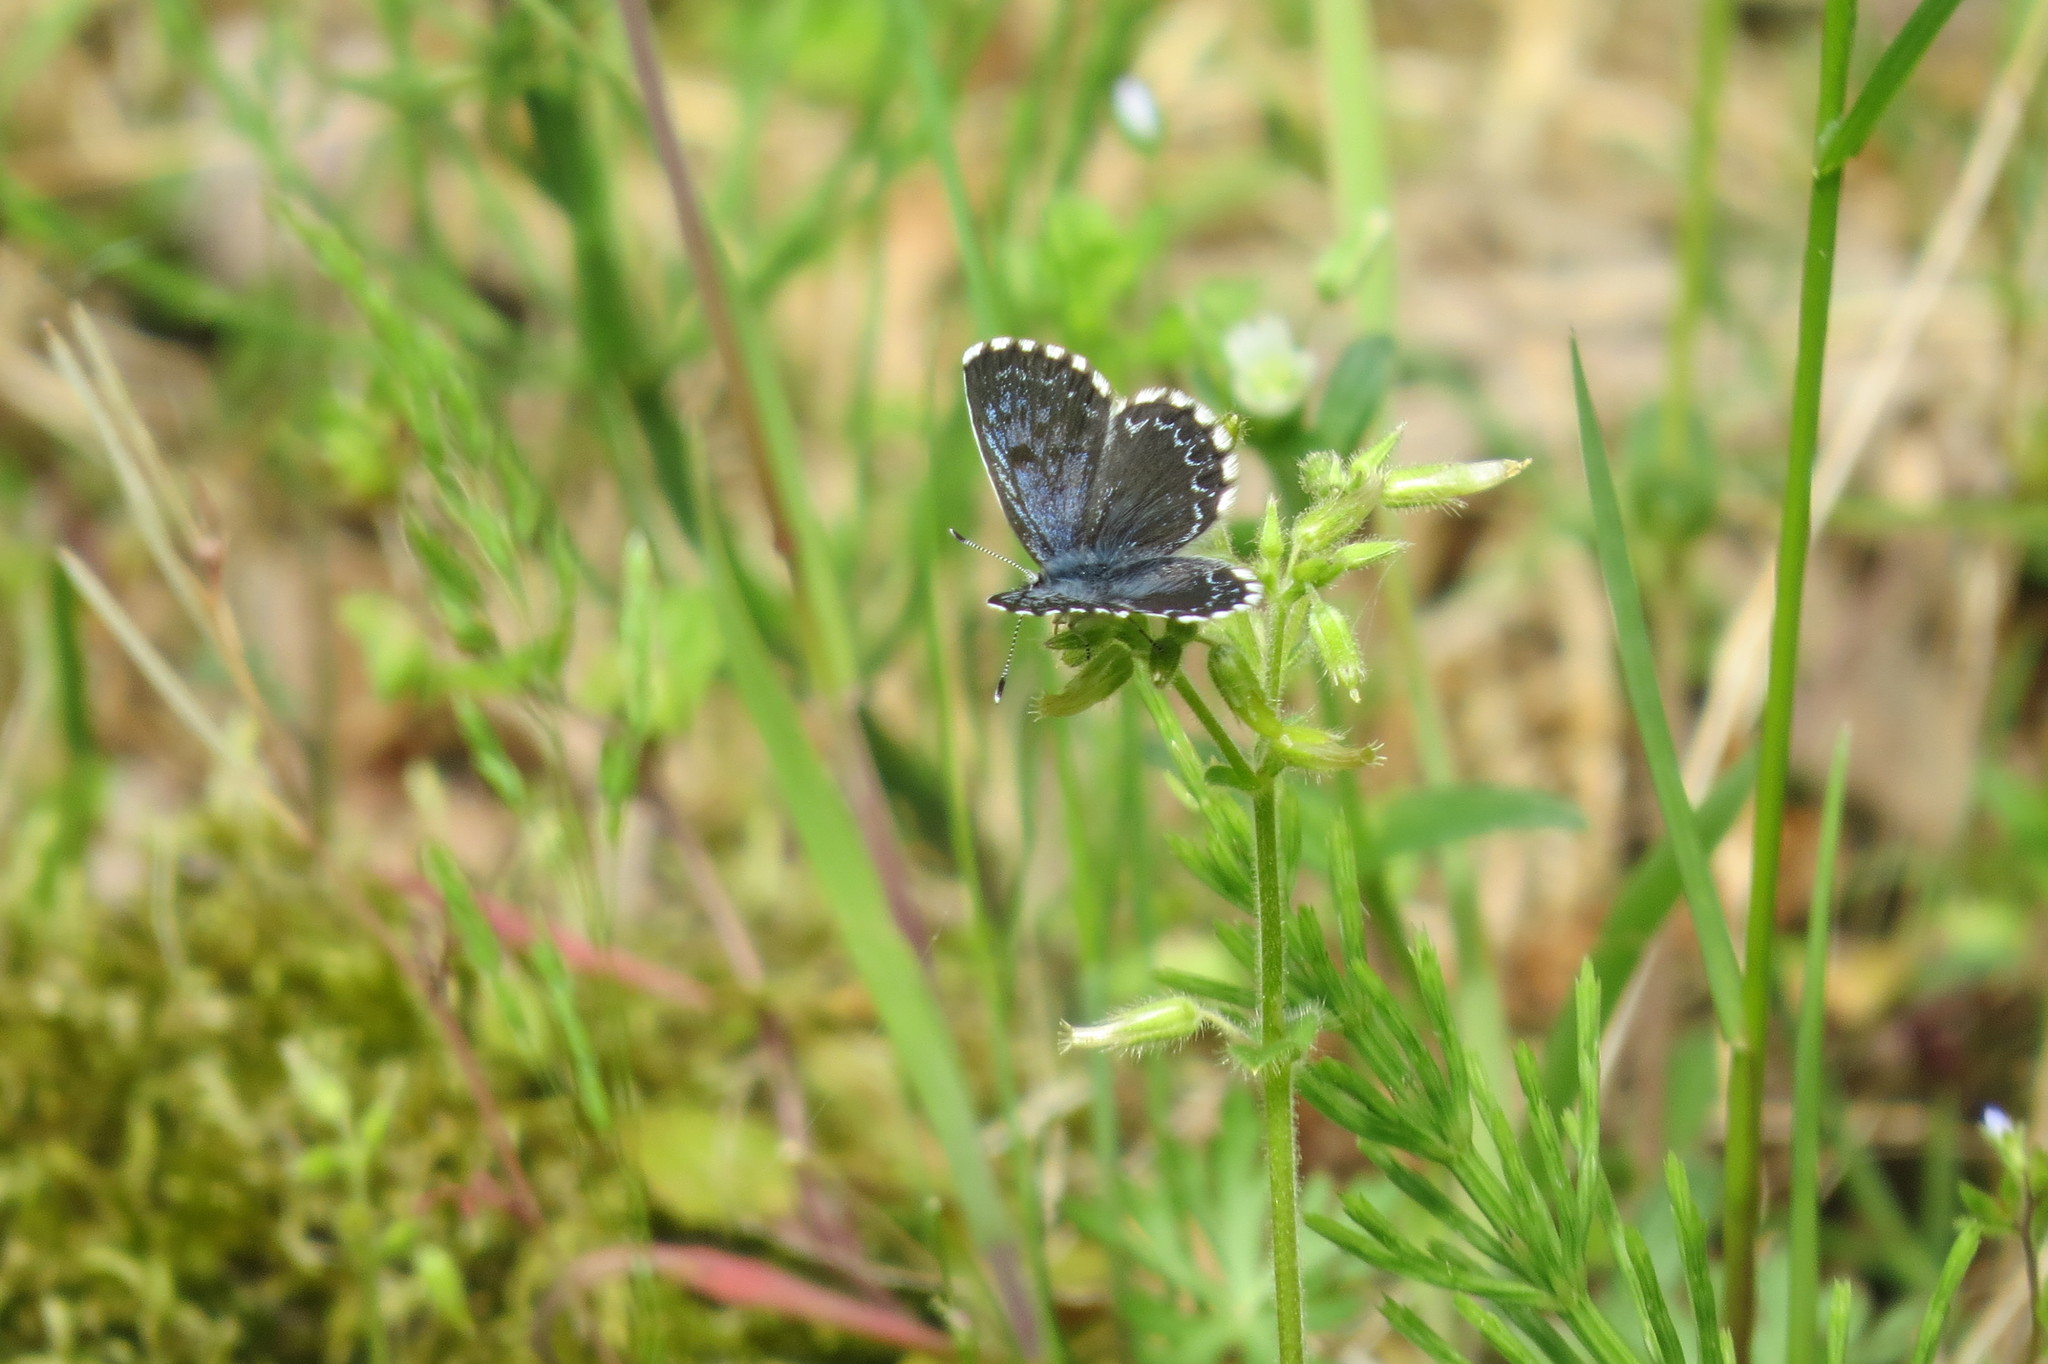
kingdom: Animalia
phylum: Arthropoda
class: Insecta
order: Lepidoptera
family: Lycaenidae
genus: Scolitantides
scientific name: Scolitantides orion
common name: Chequered blue
